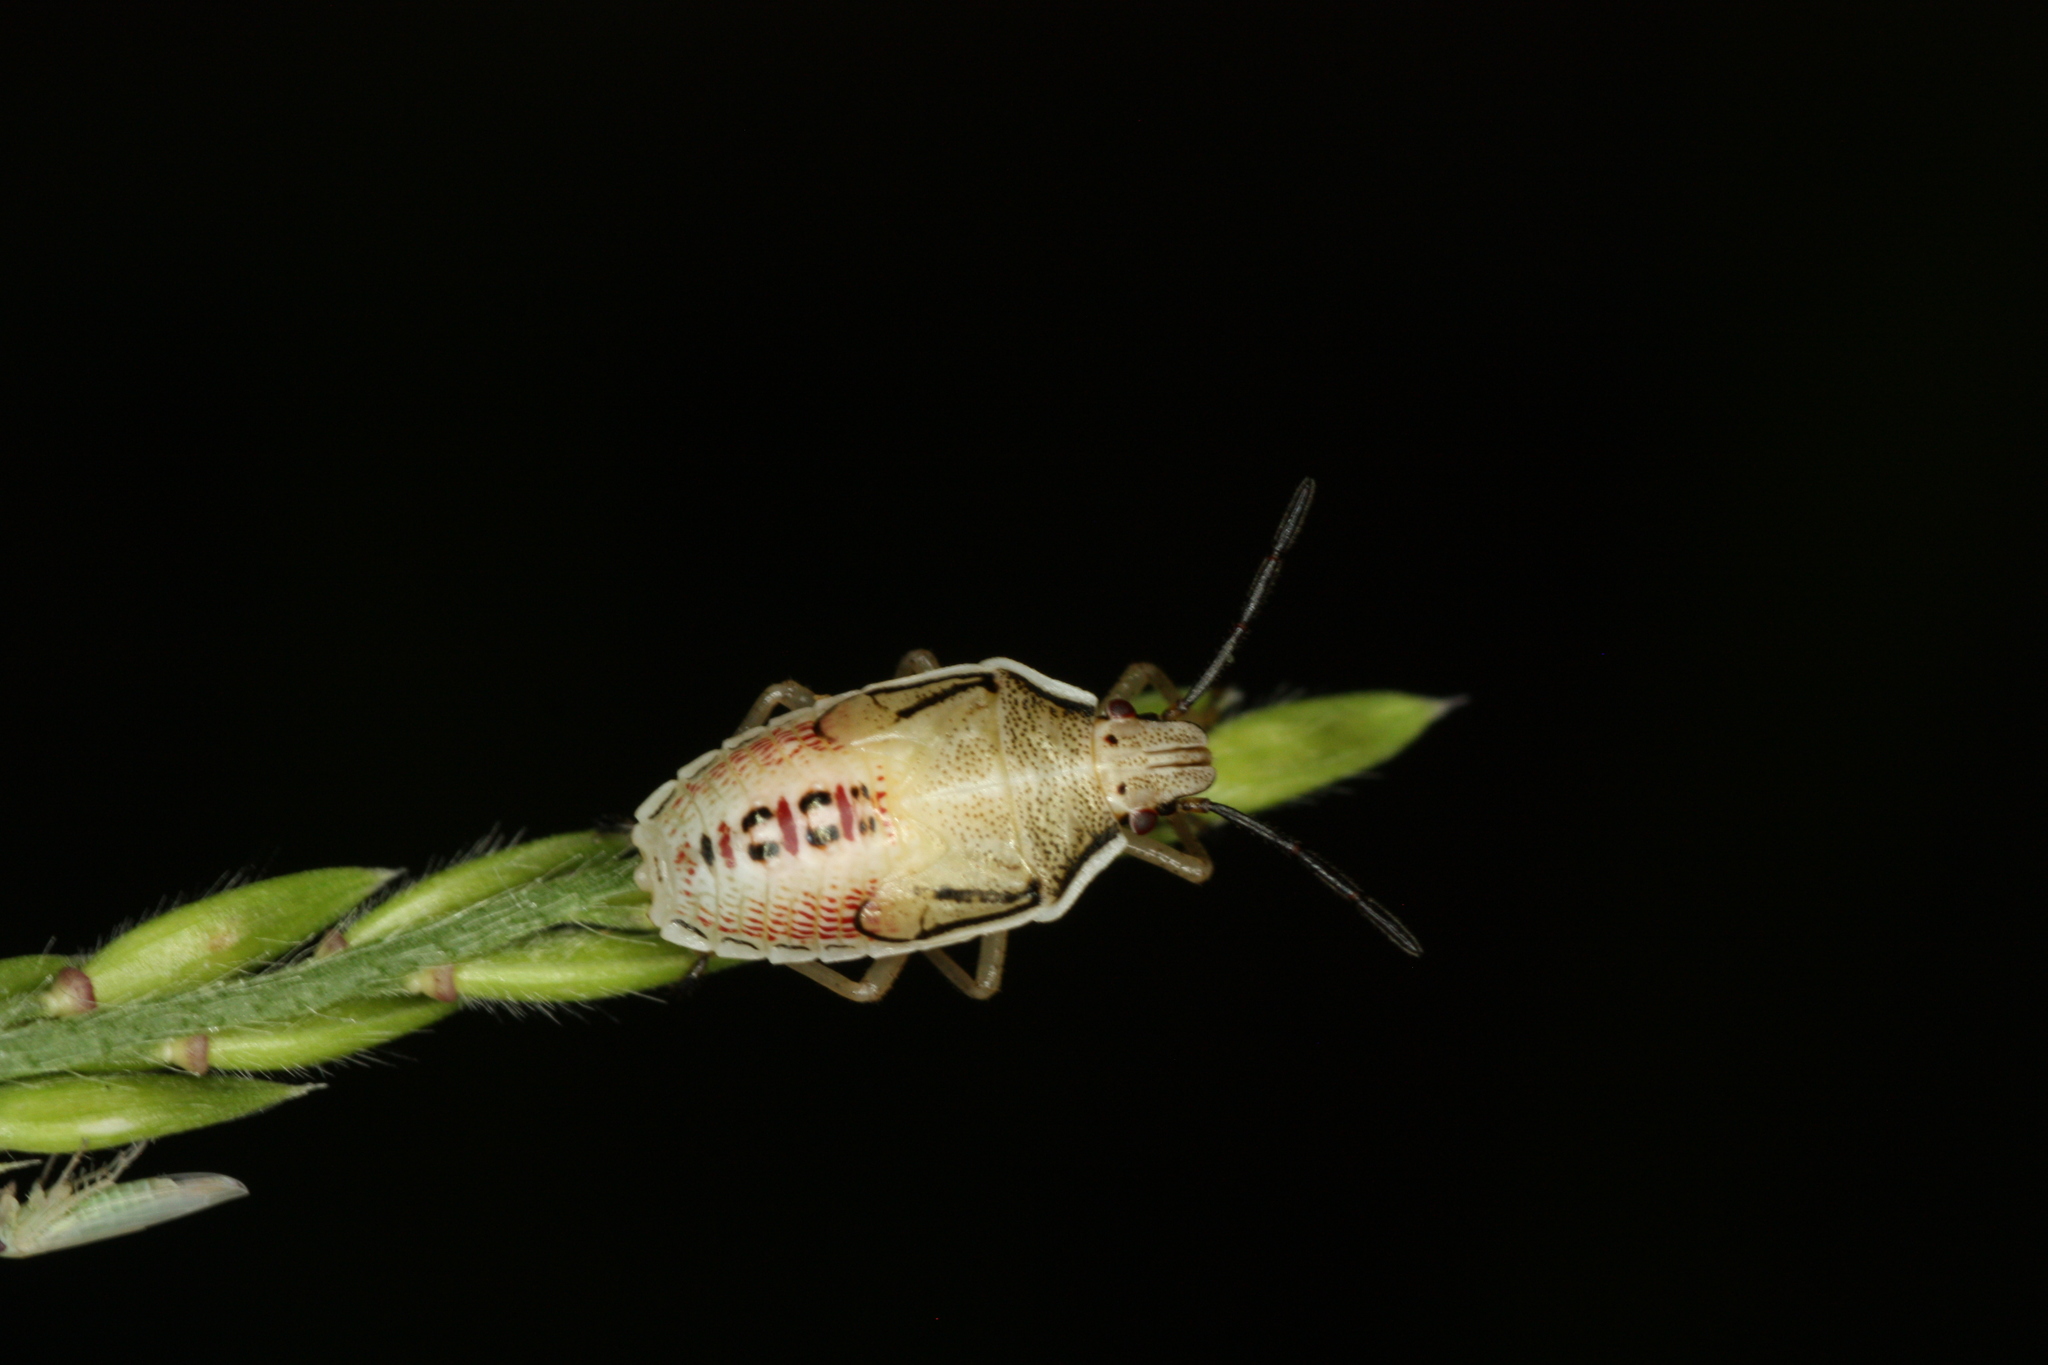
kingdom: Animalia
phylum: Arthropoda
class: Insecta
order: Hemiptera
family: Pentatomidae
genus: Oebalus
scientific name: Oebalus pugnax
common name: Rice stink bug
